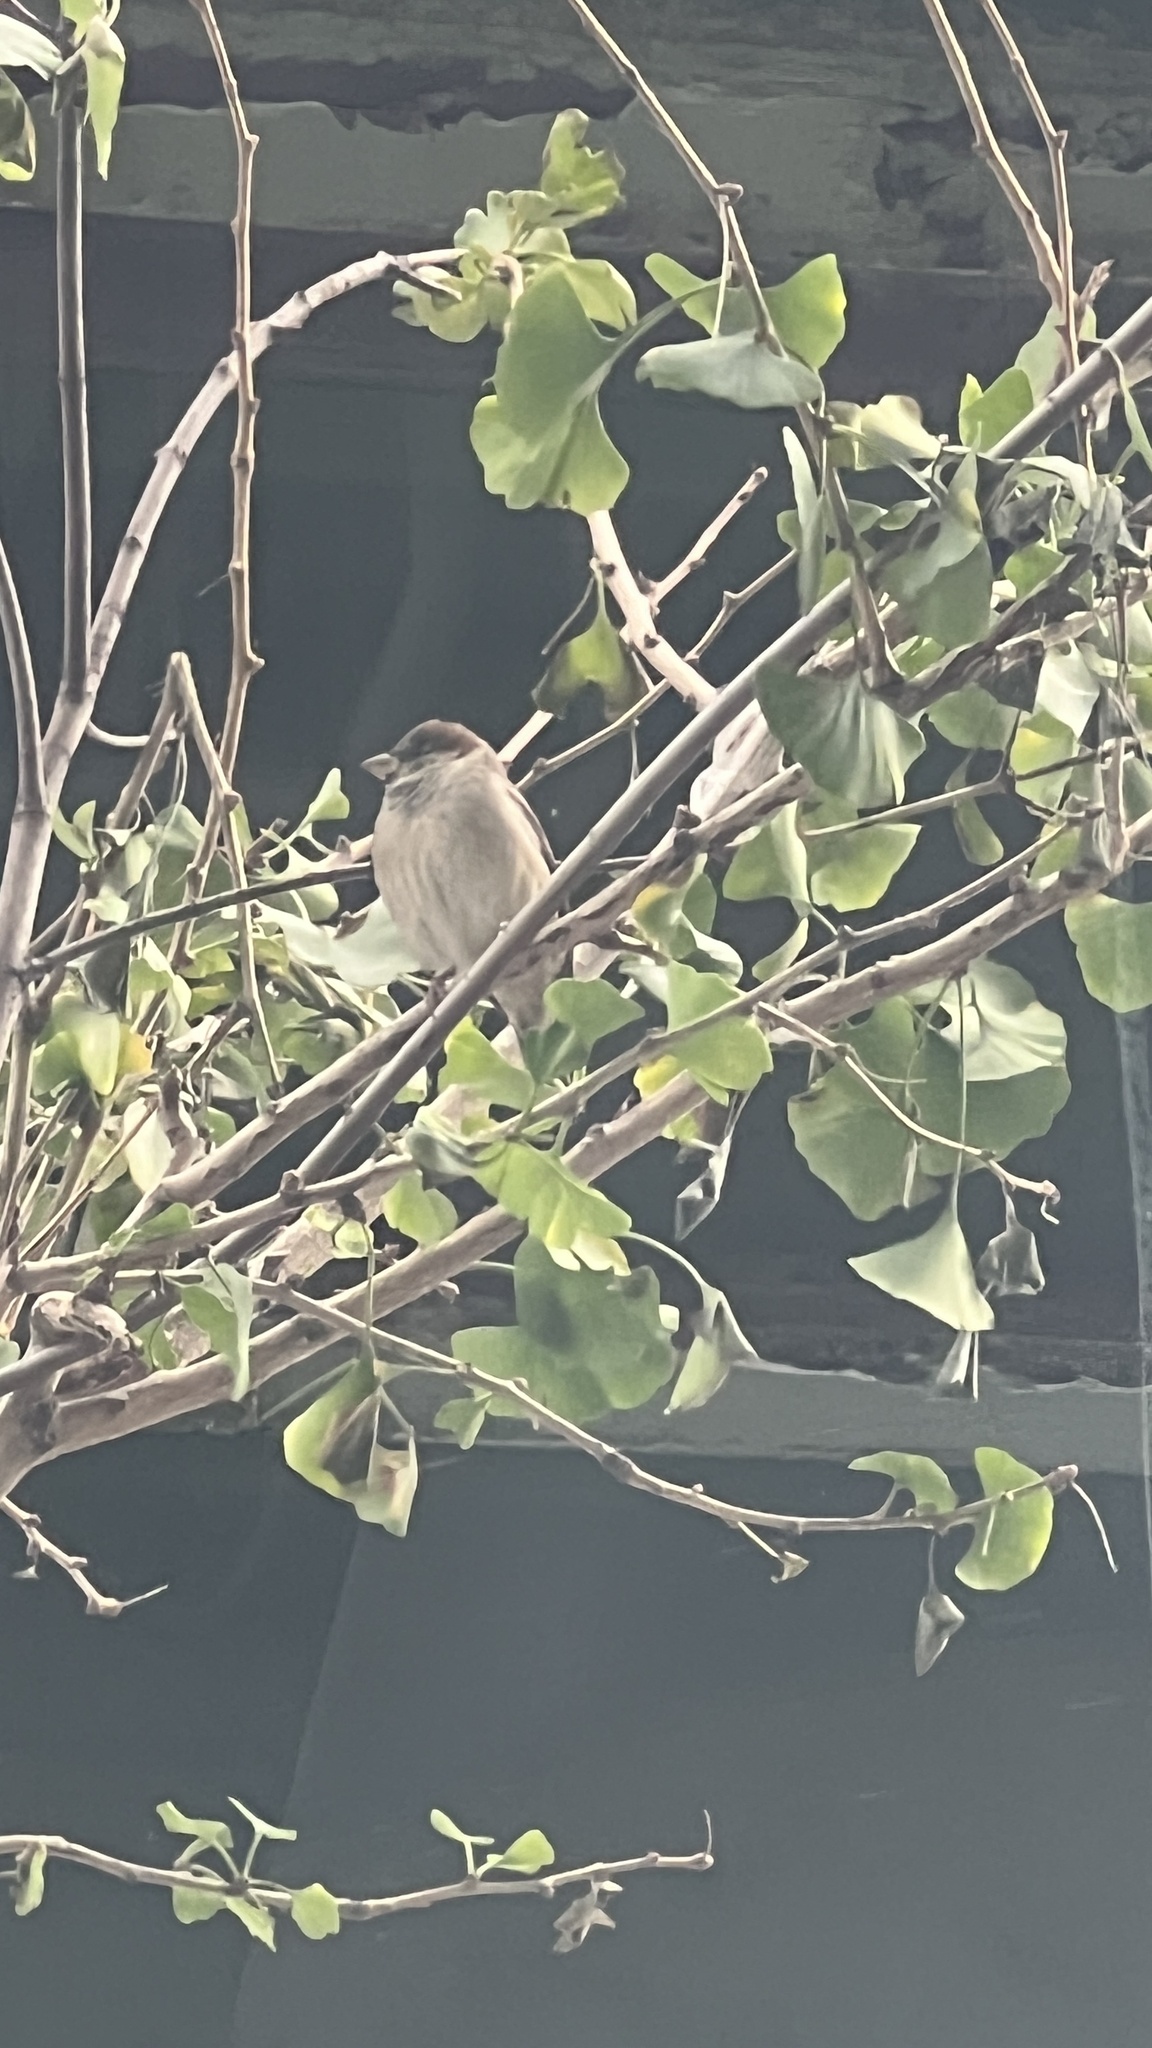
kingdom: Animalia
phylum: Chordata
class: Aves
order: Passeriformes
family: Passeridae
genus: Passer
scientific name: Passer domesticus
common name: House sparrow
